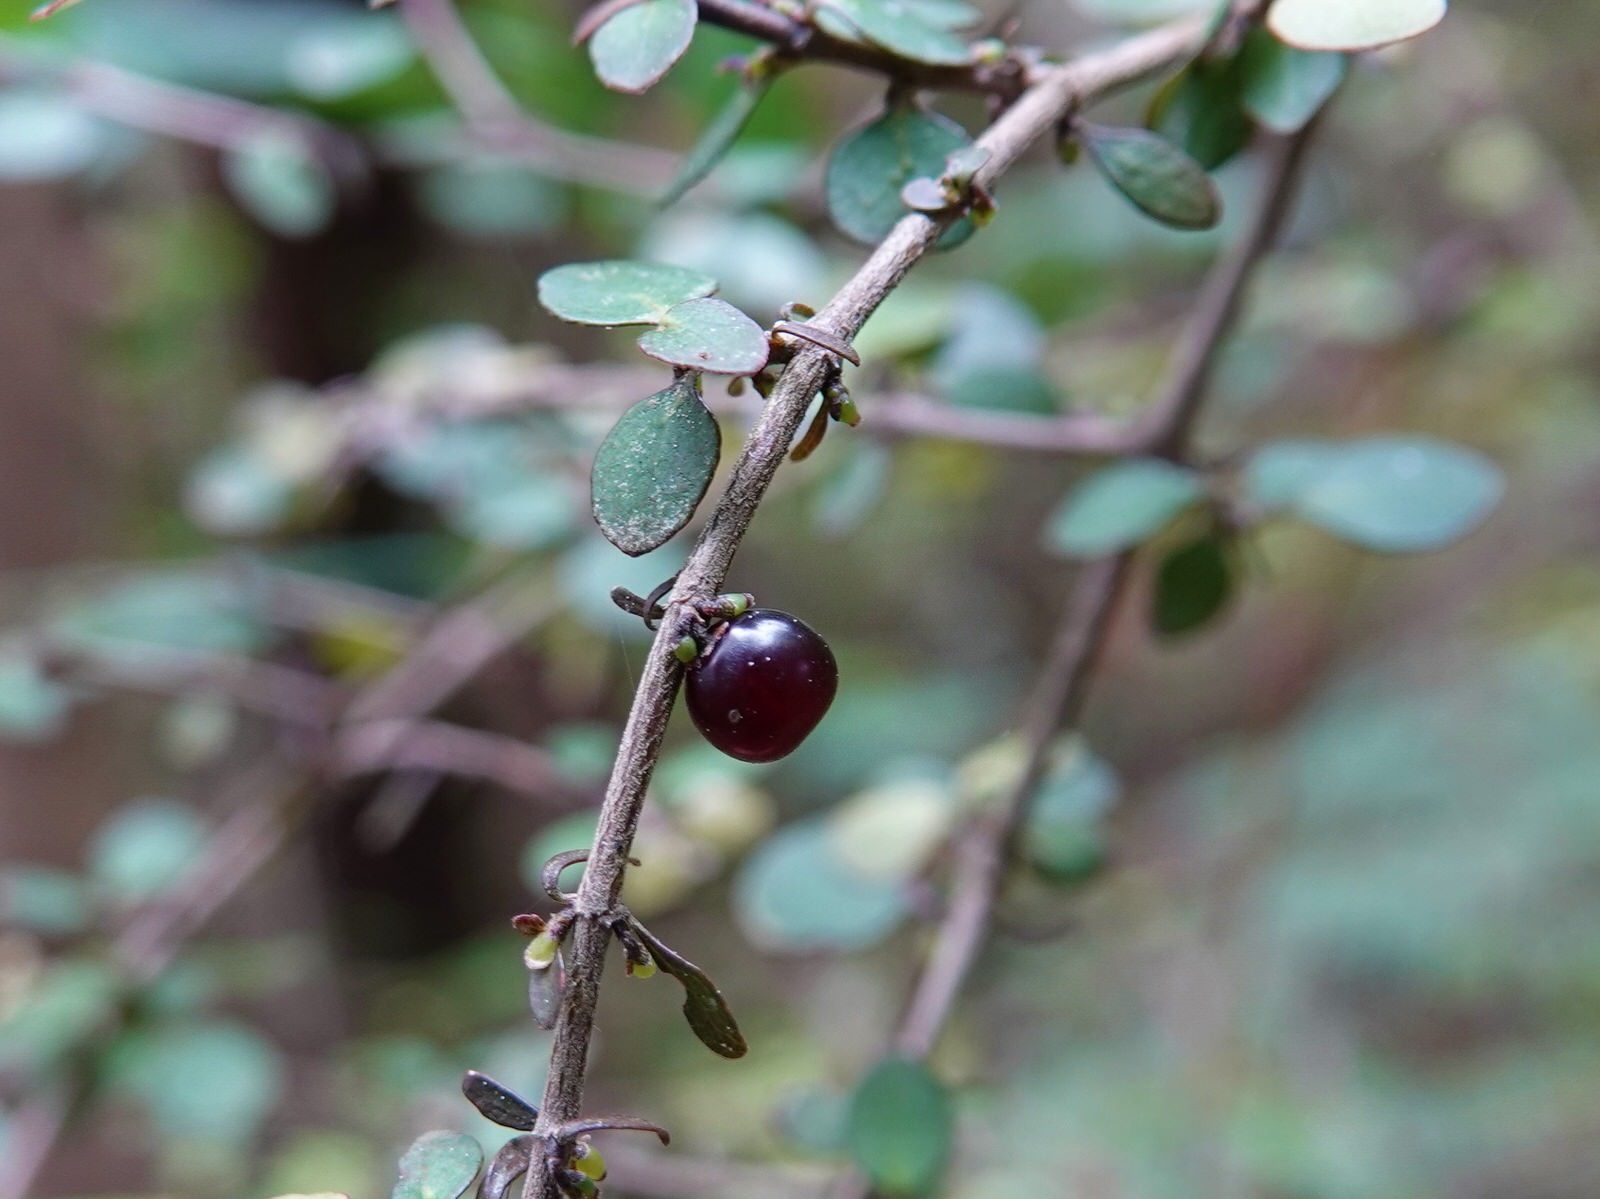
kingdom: Plantae
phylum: Tracheophyta
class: Magnoliopsida
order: Gentianales
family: Rubiaceae
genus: Coprosma
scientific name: Coprosma rhamnoides
